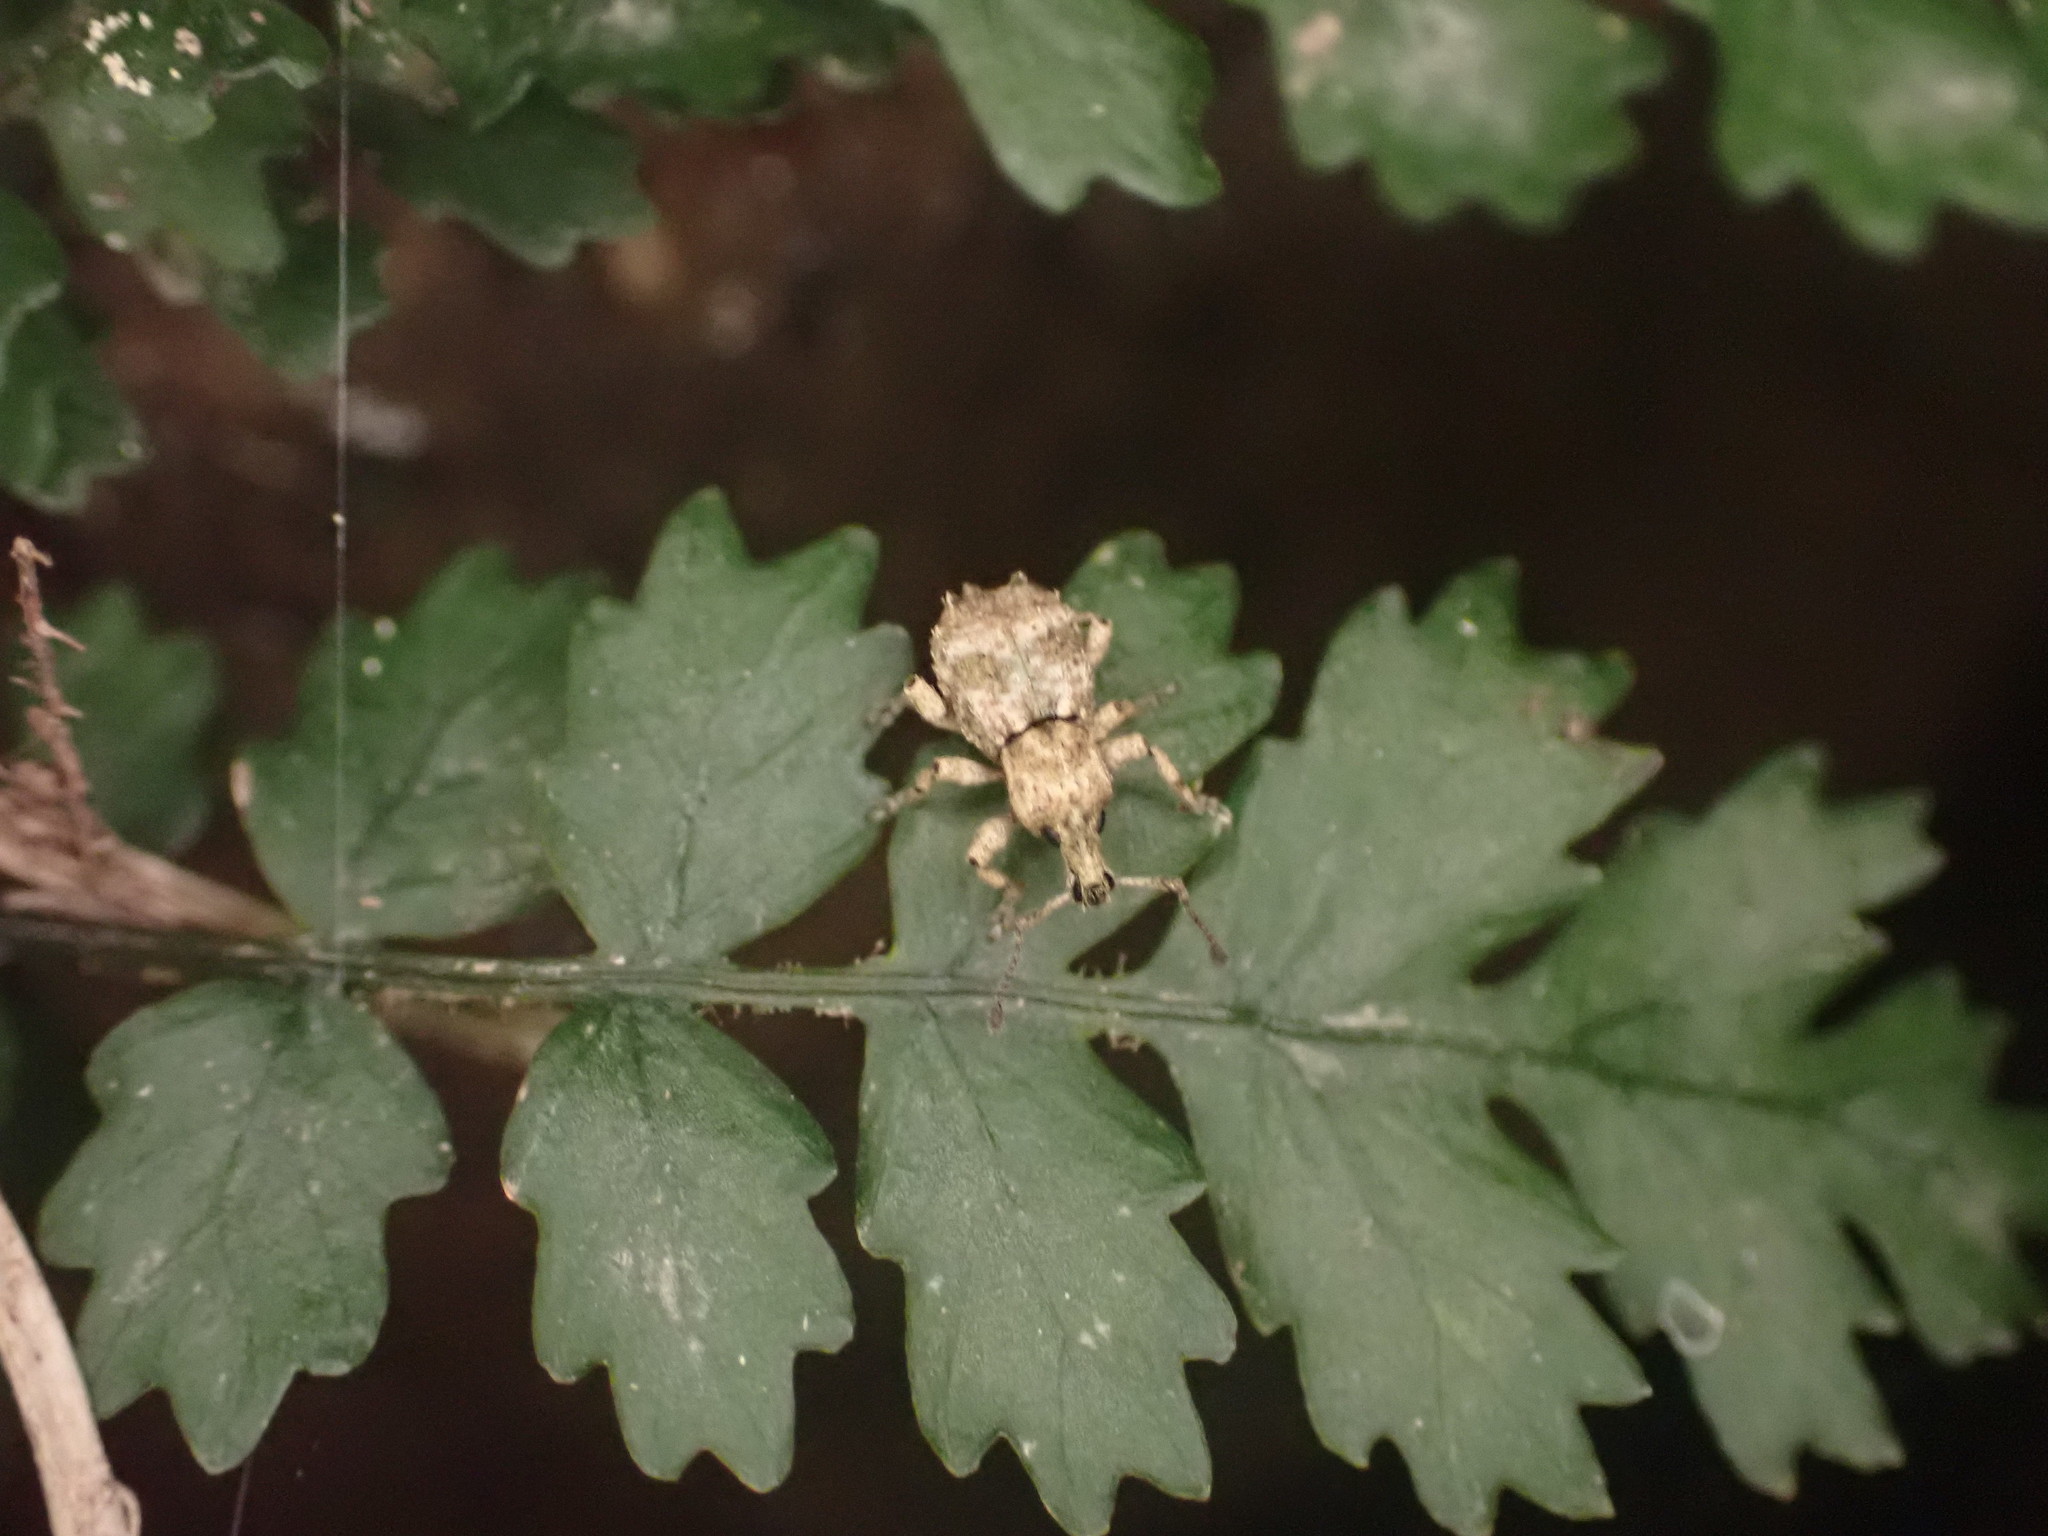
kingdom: Animalia
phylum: Arthropoda
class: Insecta
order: Coleoptera
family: Curculionidae
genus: Brachyolus
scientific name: Brachyolus punctatus
